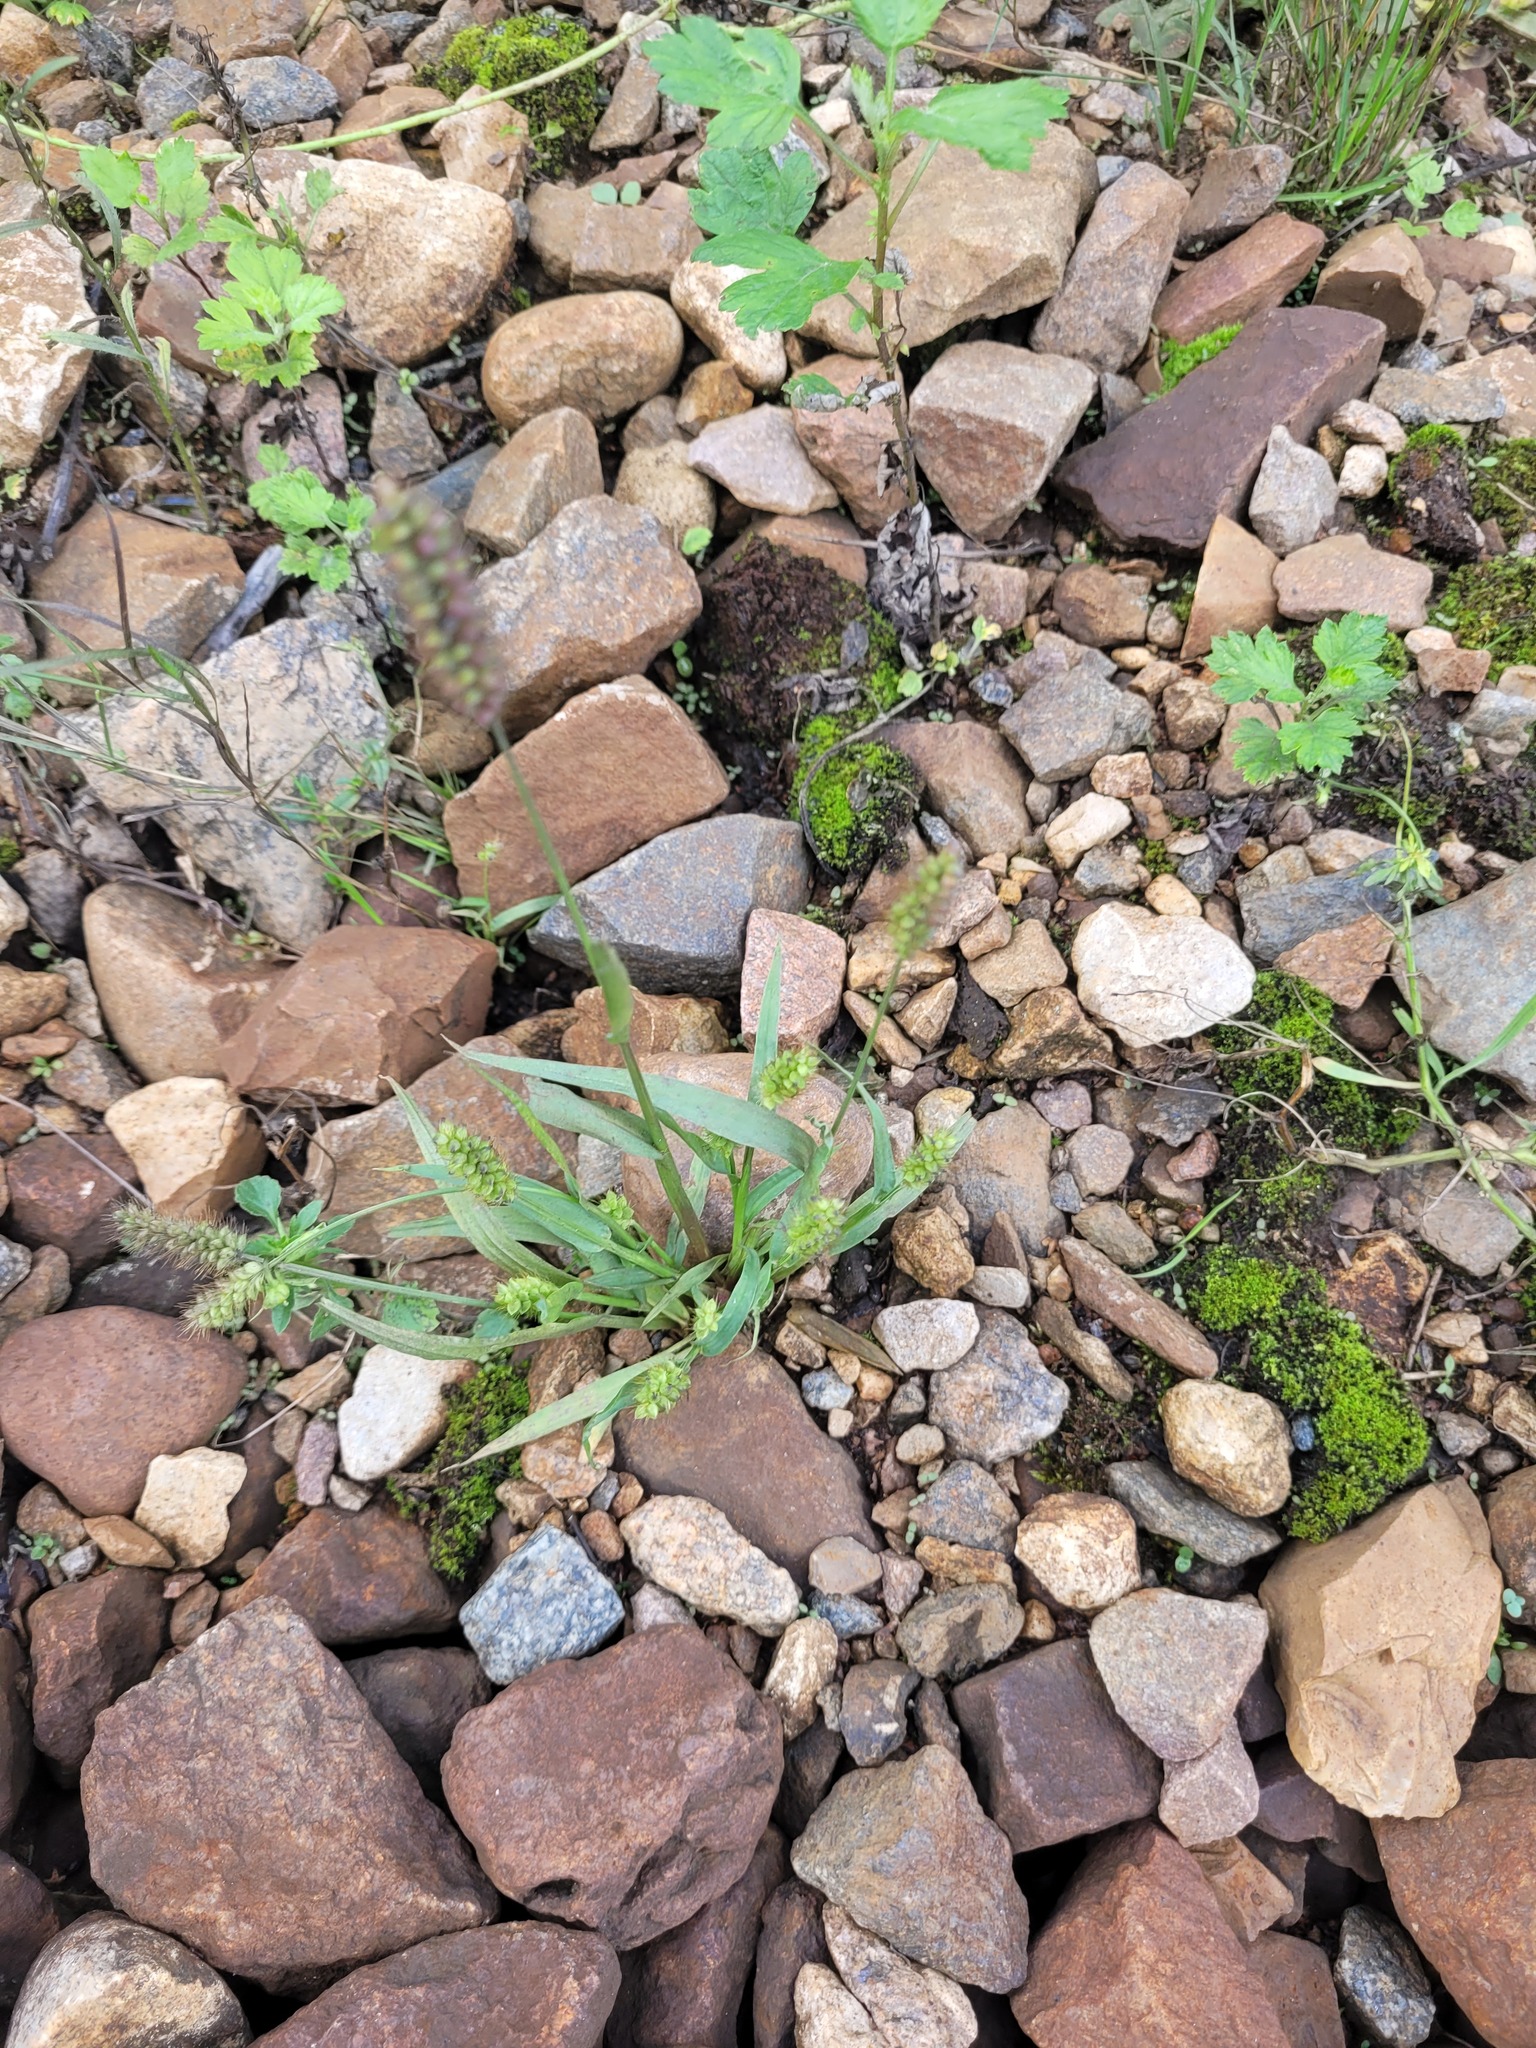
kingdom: Plantae
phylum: Tracheophyta
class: Liliopsida
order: Poales
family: Poaceae
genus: Setaria
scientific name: Setaria pumila
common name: Yellow bristle-grass
